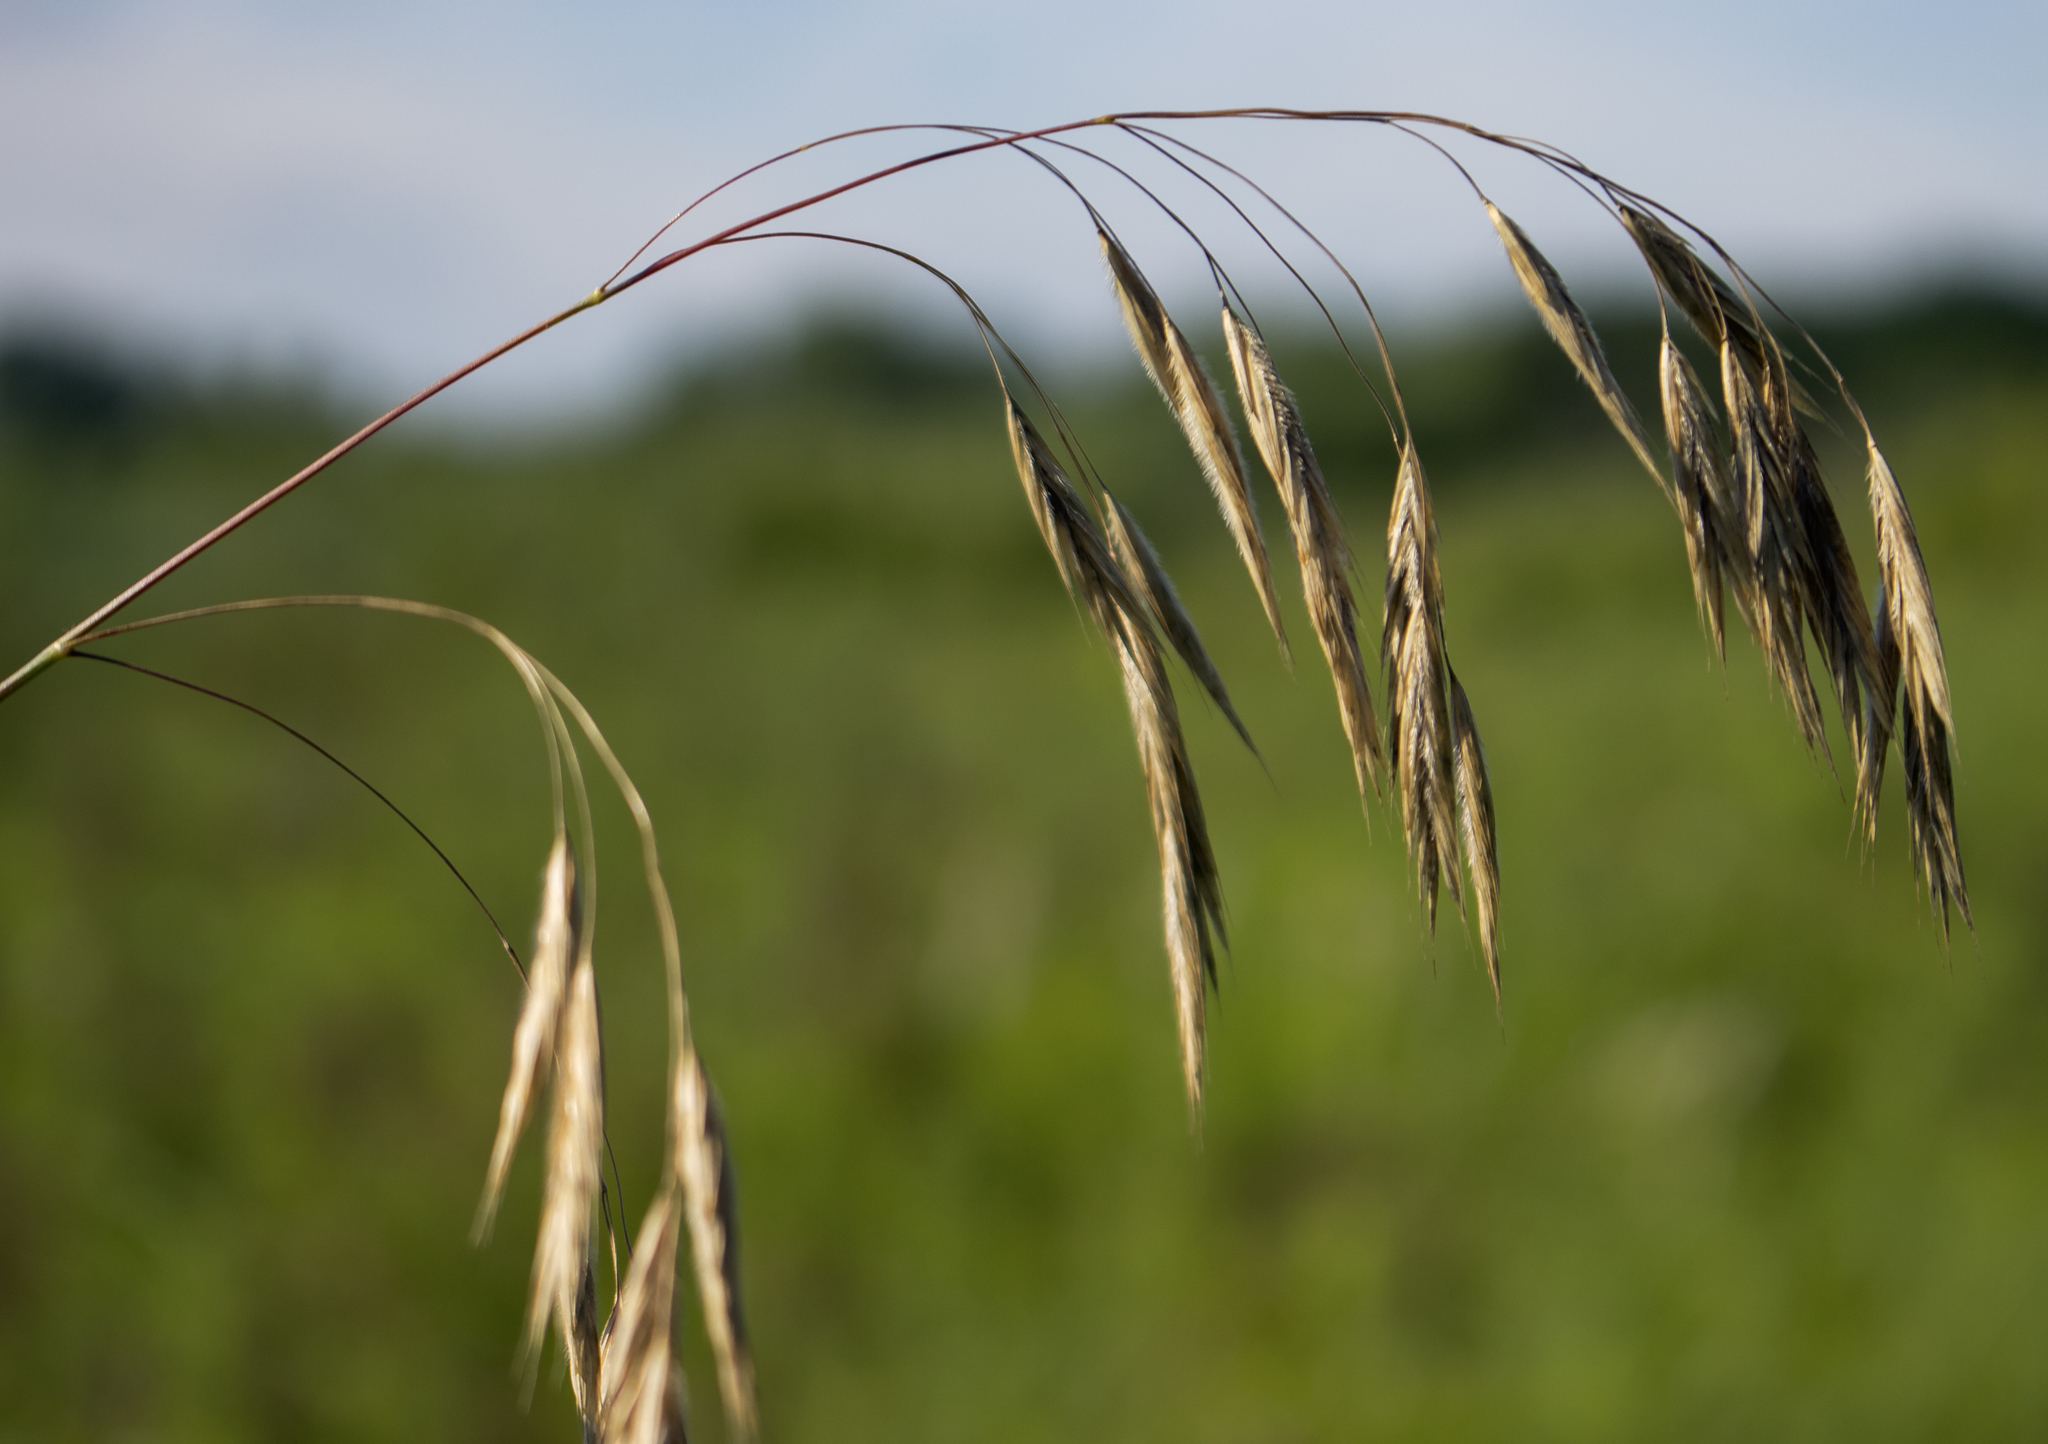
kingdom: Plantae
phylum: Tracheophyta
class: Liliopsida
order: Poales
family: Poaceae
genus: Bromus
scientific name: Bromus kalmii
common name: Kalm brome
